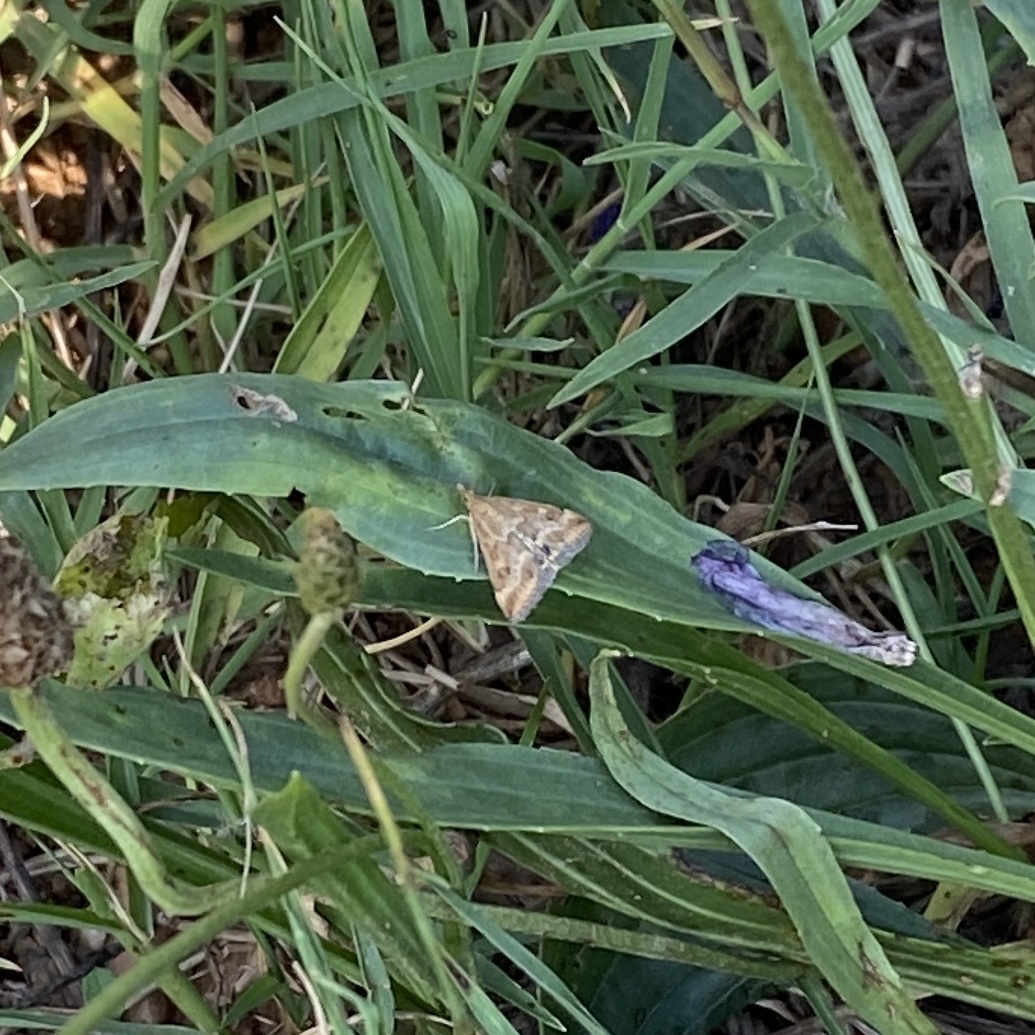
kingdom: Animalia
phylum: Arthropoda
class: Insecta
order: Lepidoptera
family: Crambidae
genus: Pyrausta
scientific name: Pyrausta despicata
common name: Straw-barred pearl
